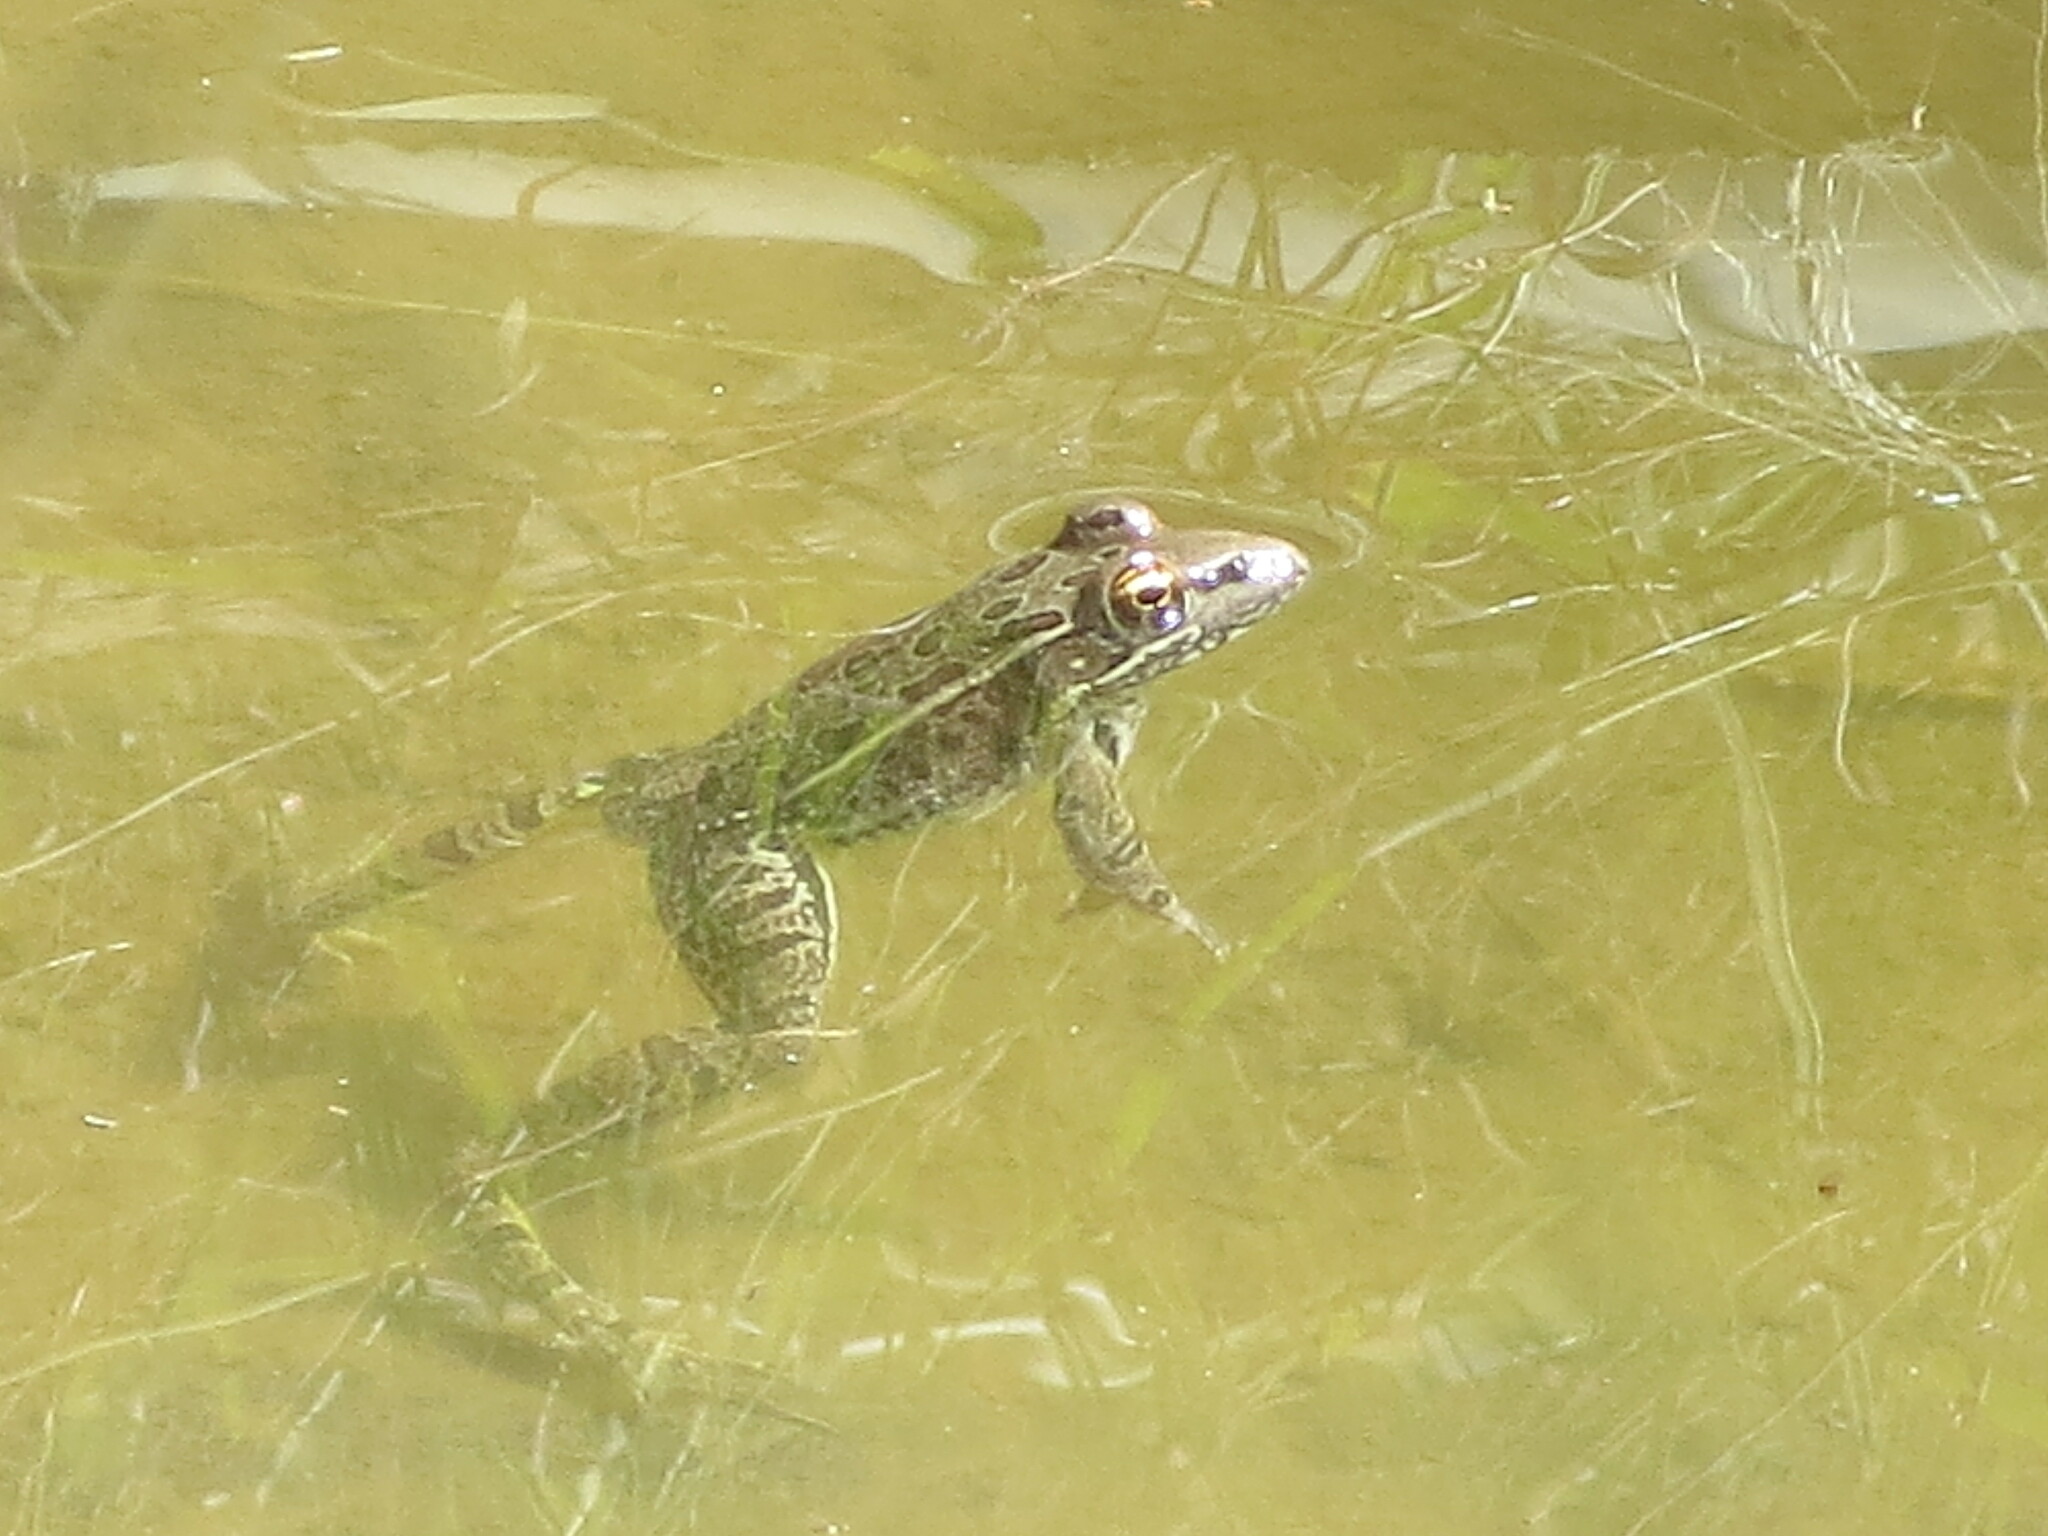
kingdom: Animalia
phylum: Chordata
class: Amphibia
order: Anura
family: Ranidae
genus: Lithobates
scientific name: Lithobates berlandieri
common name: Rio grande leopard frog
